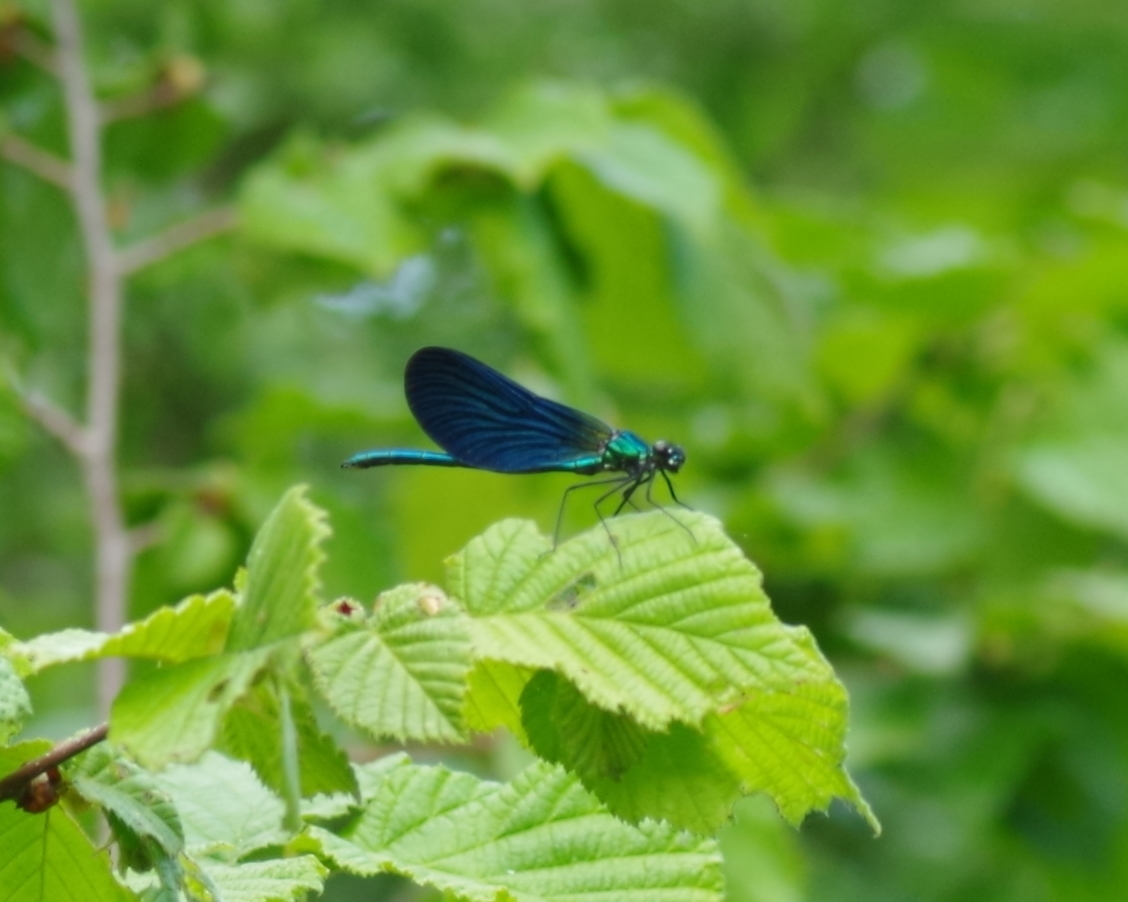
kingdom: Animalia
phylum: Arthropoda
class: Insecta
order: Odonata
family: Calopterygidae
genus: Calopteryx
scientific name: Calopteryx virgo
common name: Beautiful demoiselle
